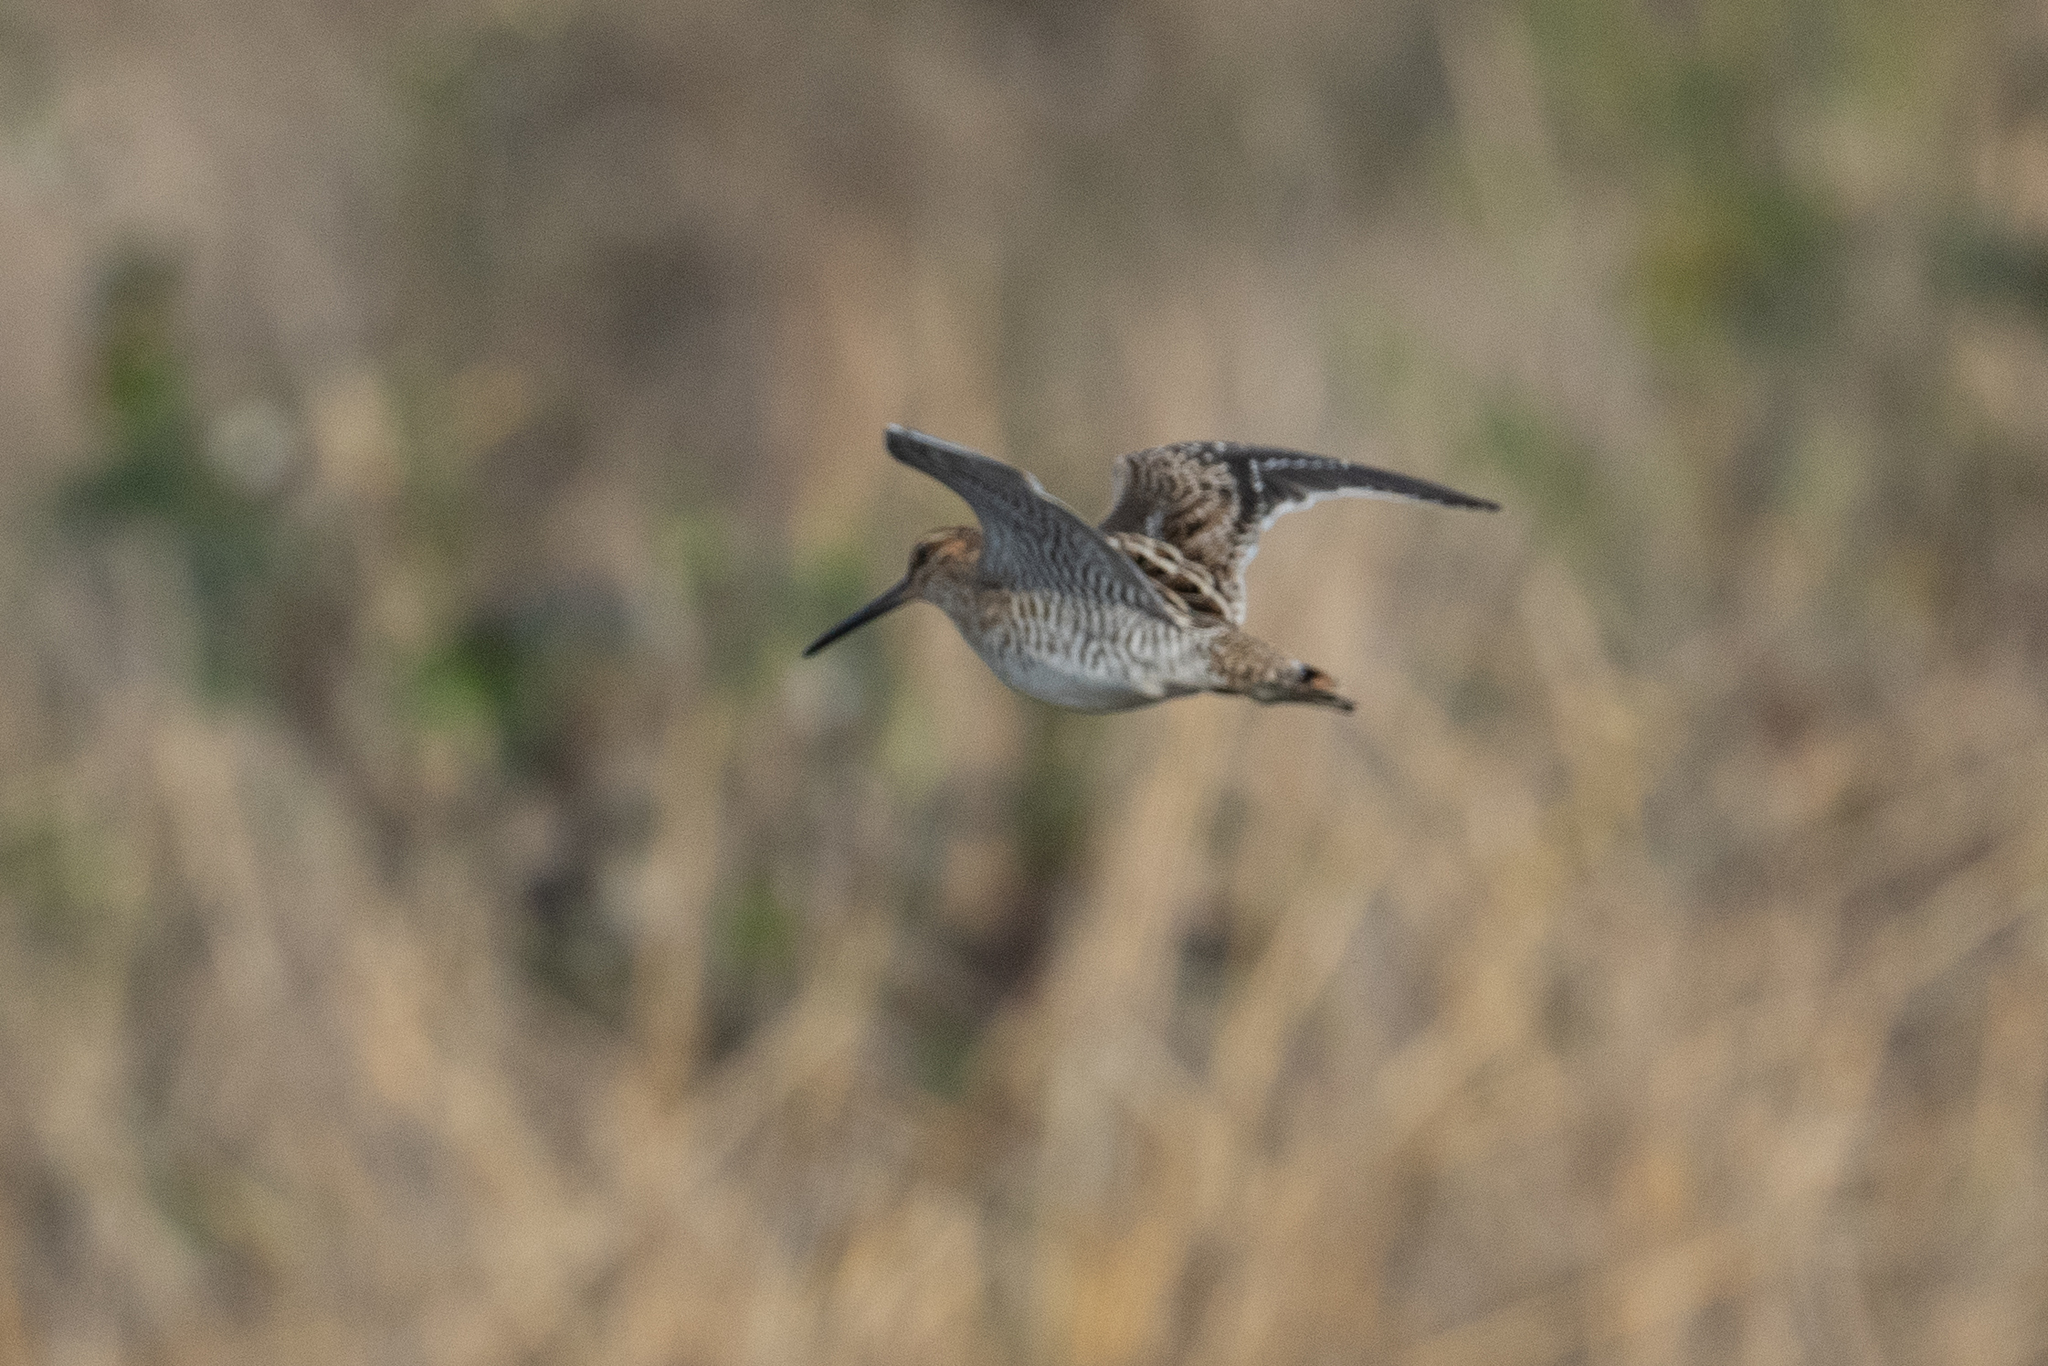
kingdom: Animalia
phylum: Chordata
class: Aves
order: Charadriiformes
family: Scolopacidae
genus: Gallinago
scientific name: Gallinago delicata
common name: Wilson's snipe
